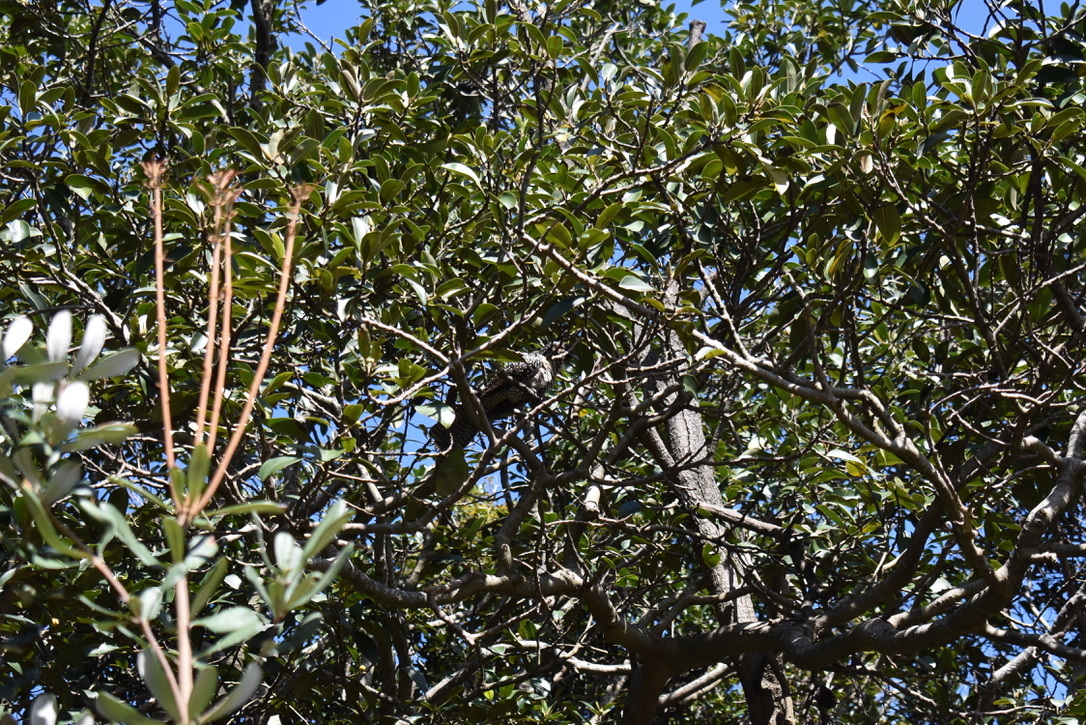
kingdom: Animalia
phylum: Chordata
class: Aves
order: Cuculiformes
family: Cuculidae
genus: Eudynamys
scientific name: Eudynamys scolopaceus
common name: Asian koel
